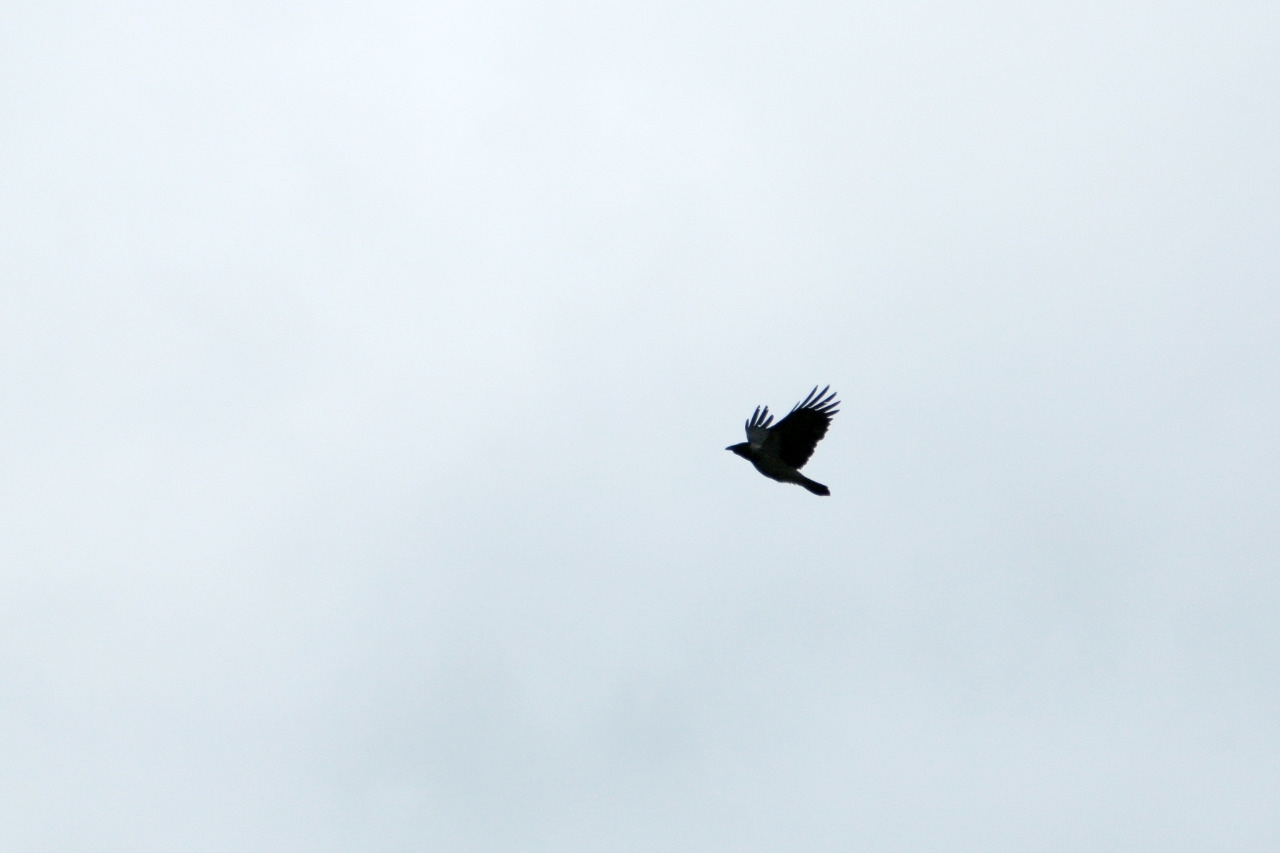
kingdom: Animalia
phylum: Chordata
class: Aves
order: Passeriformes
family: Corvidae
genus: Corvus
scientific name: Corvus cornix
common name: Hooded crow
